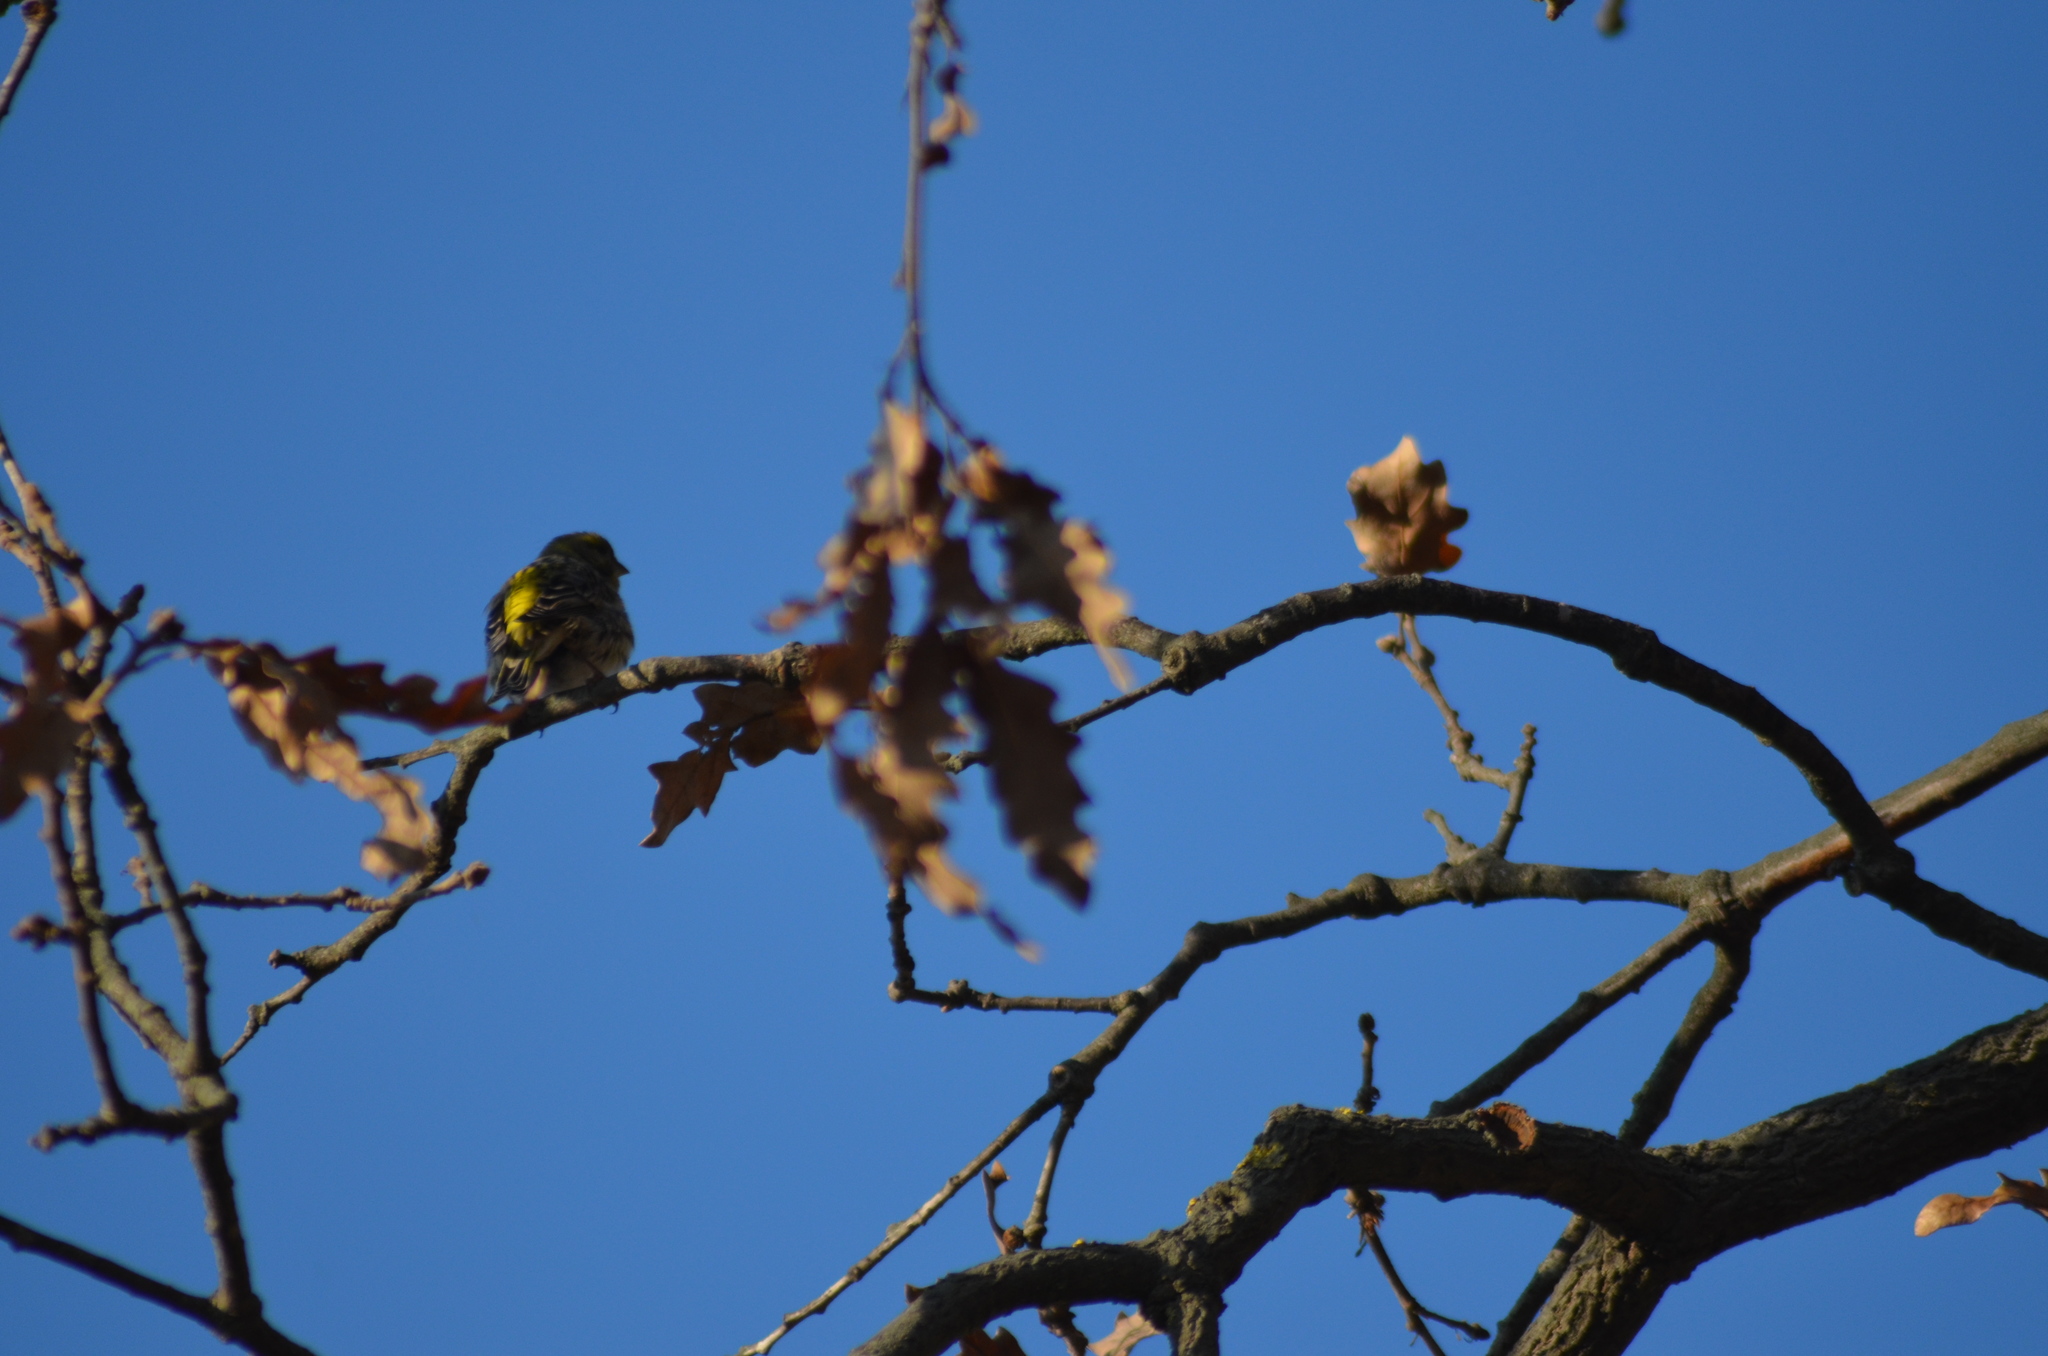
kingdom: Animalia
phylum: Chordata
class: Aves
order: Passeriformes
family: Fringillidae
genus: Serinus
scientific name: Serinus serinus
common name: European serin
